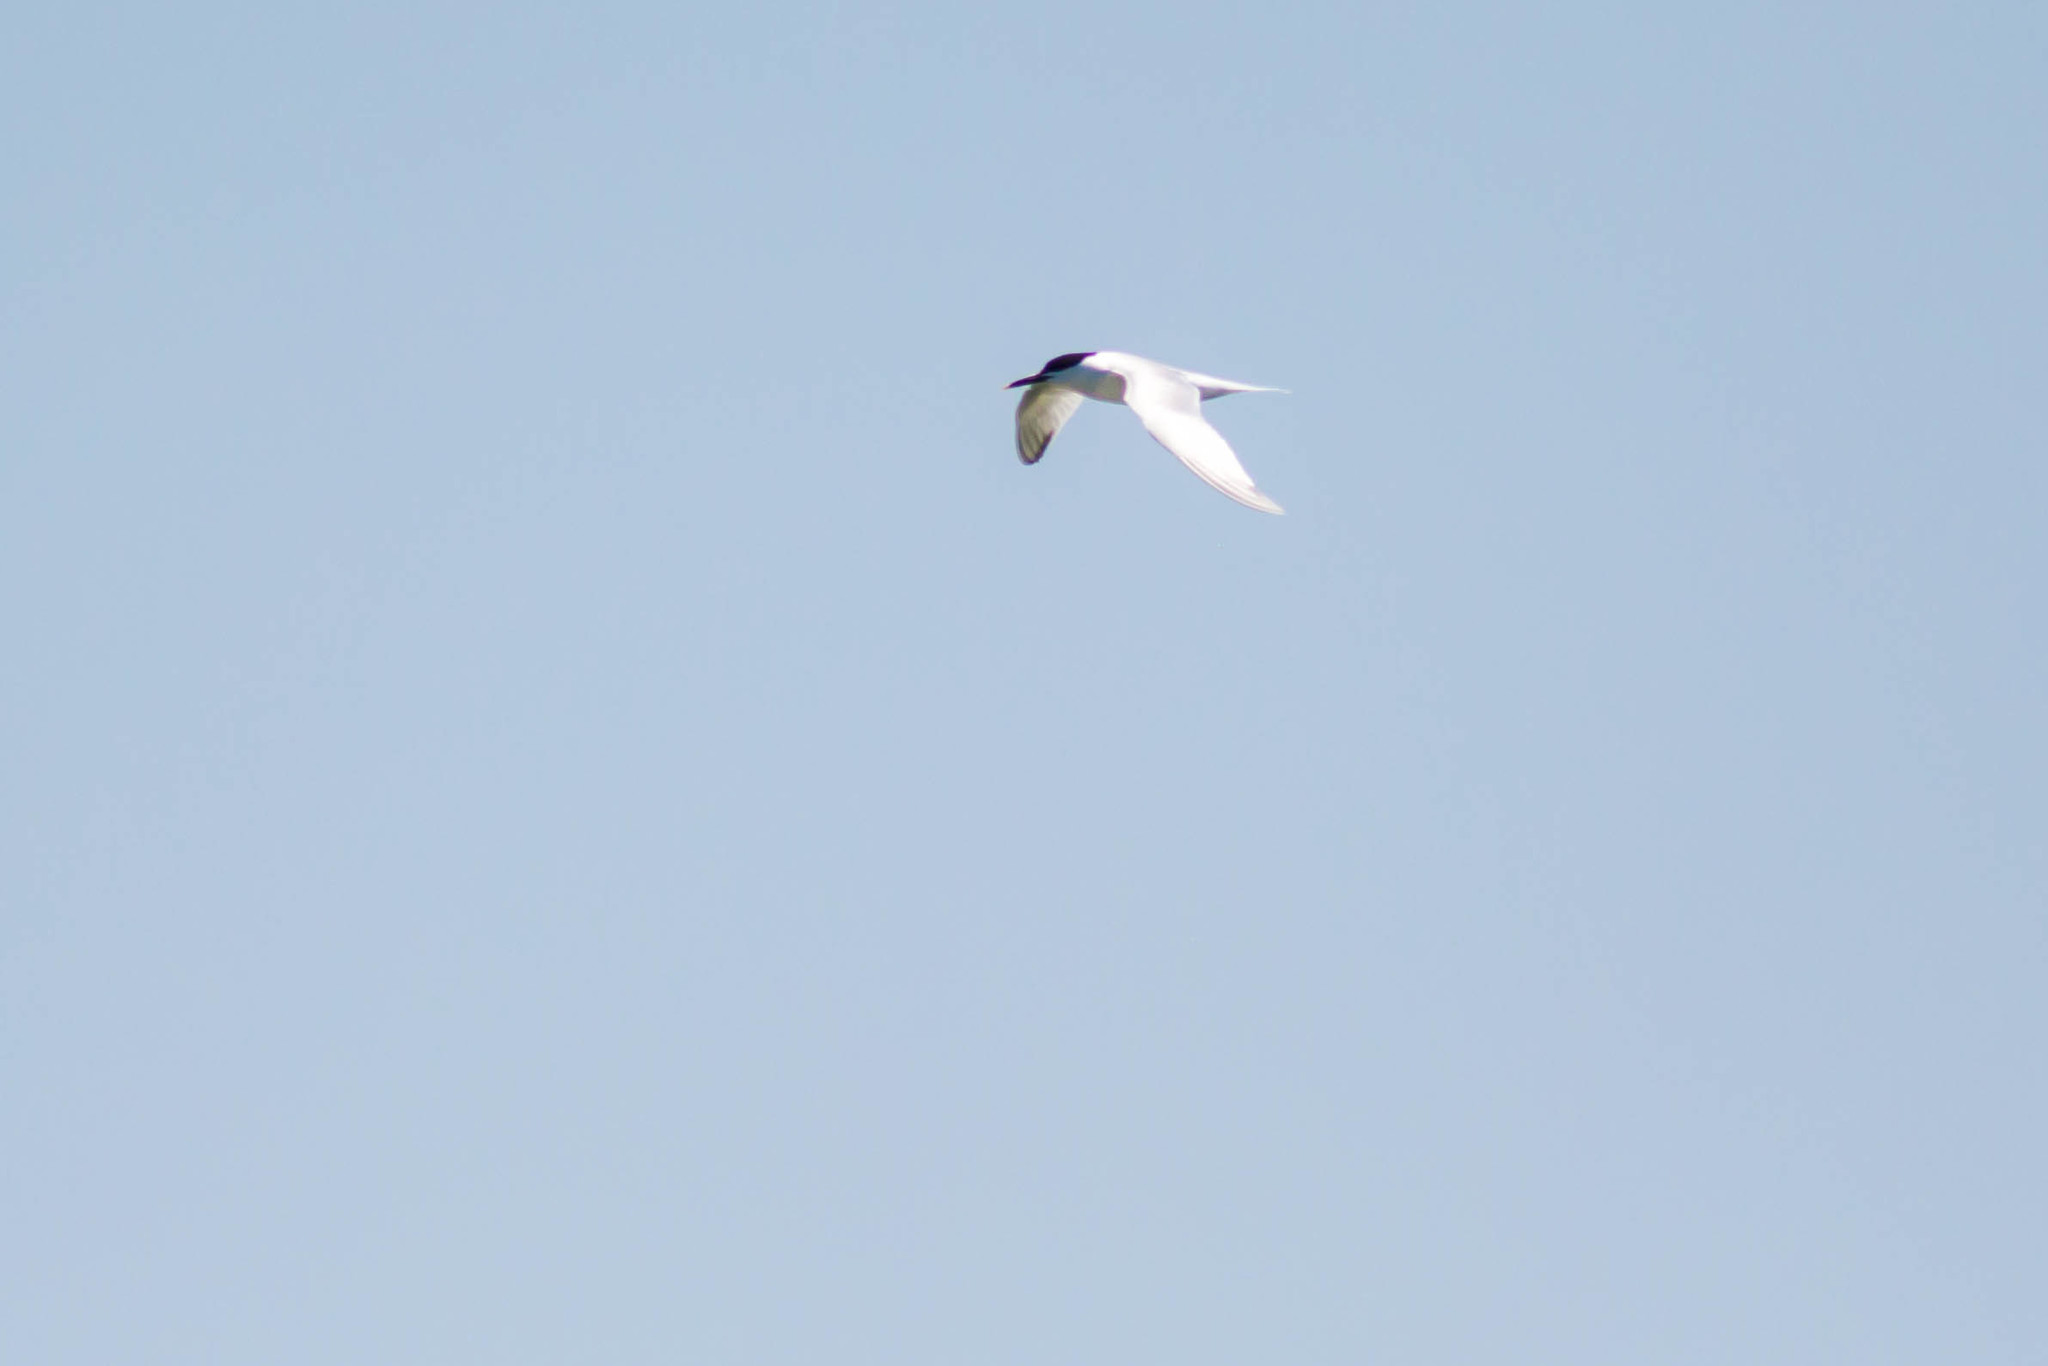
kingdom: Animalia
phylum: Chordata
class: Aves
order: Charadriiformes
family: Laridae
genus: Thalasseus
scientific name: Thalasseus sandvicensis
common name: Sandwich tern
